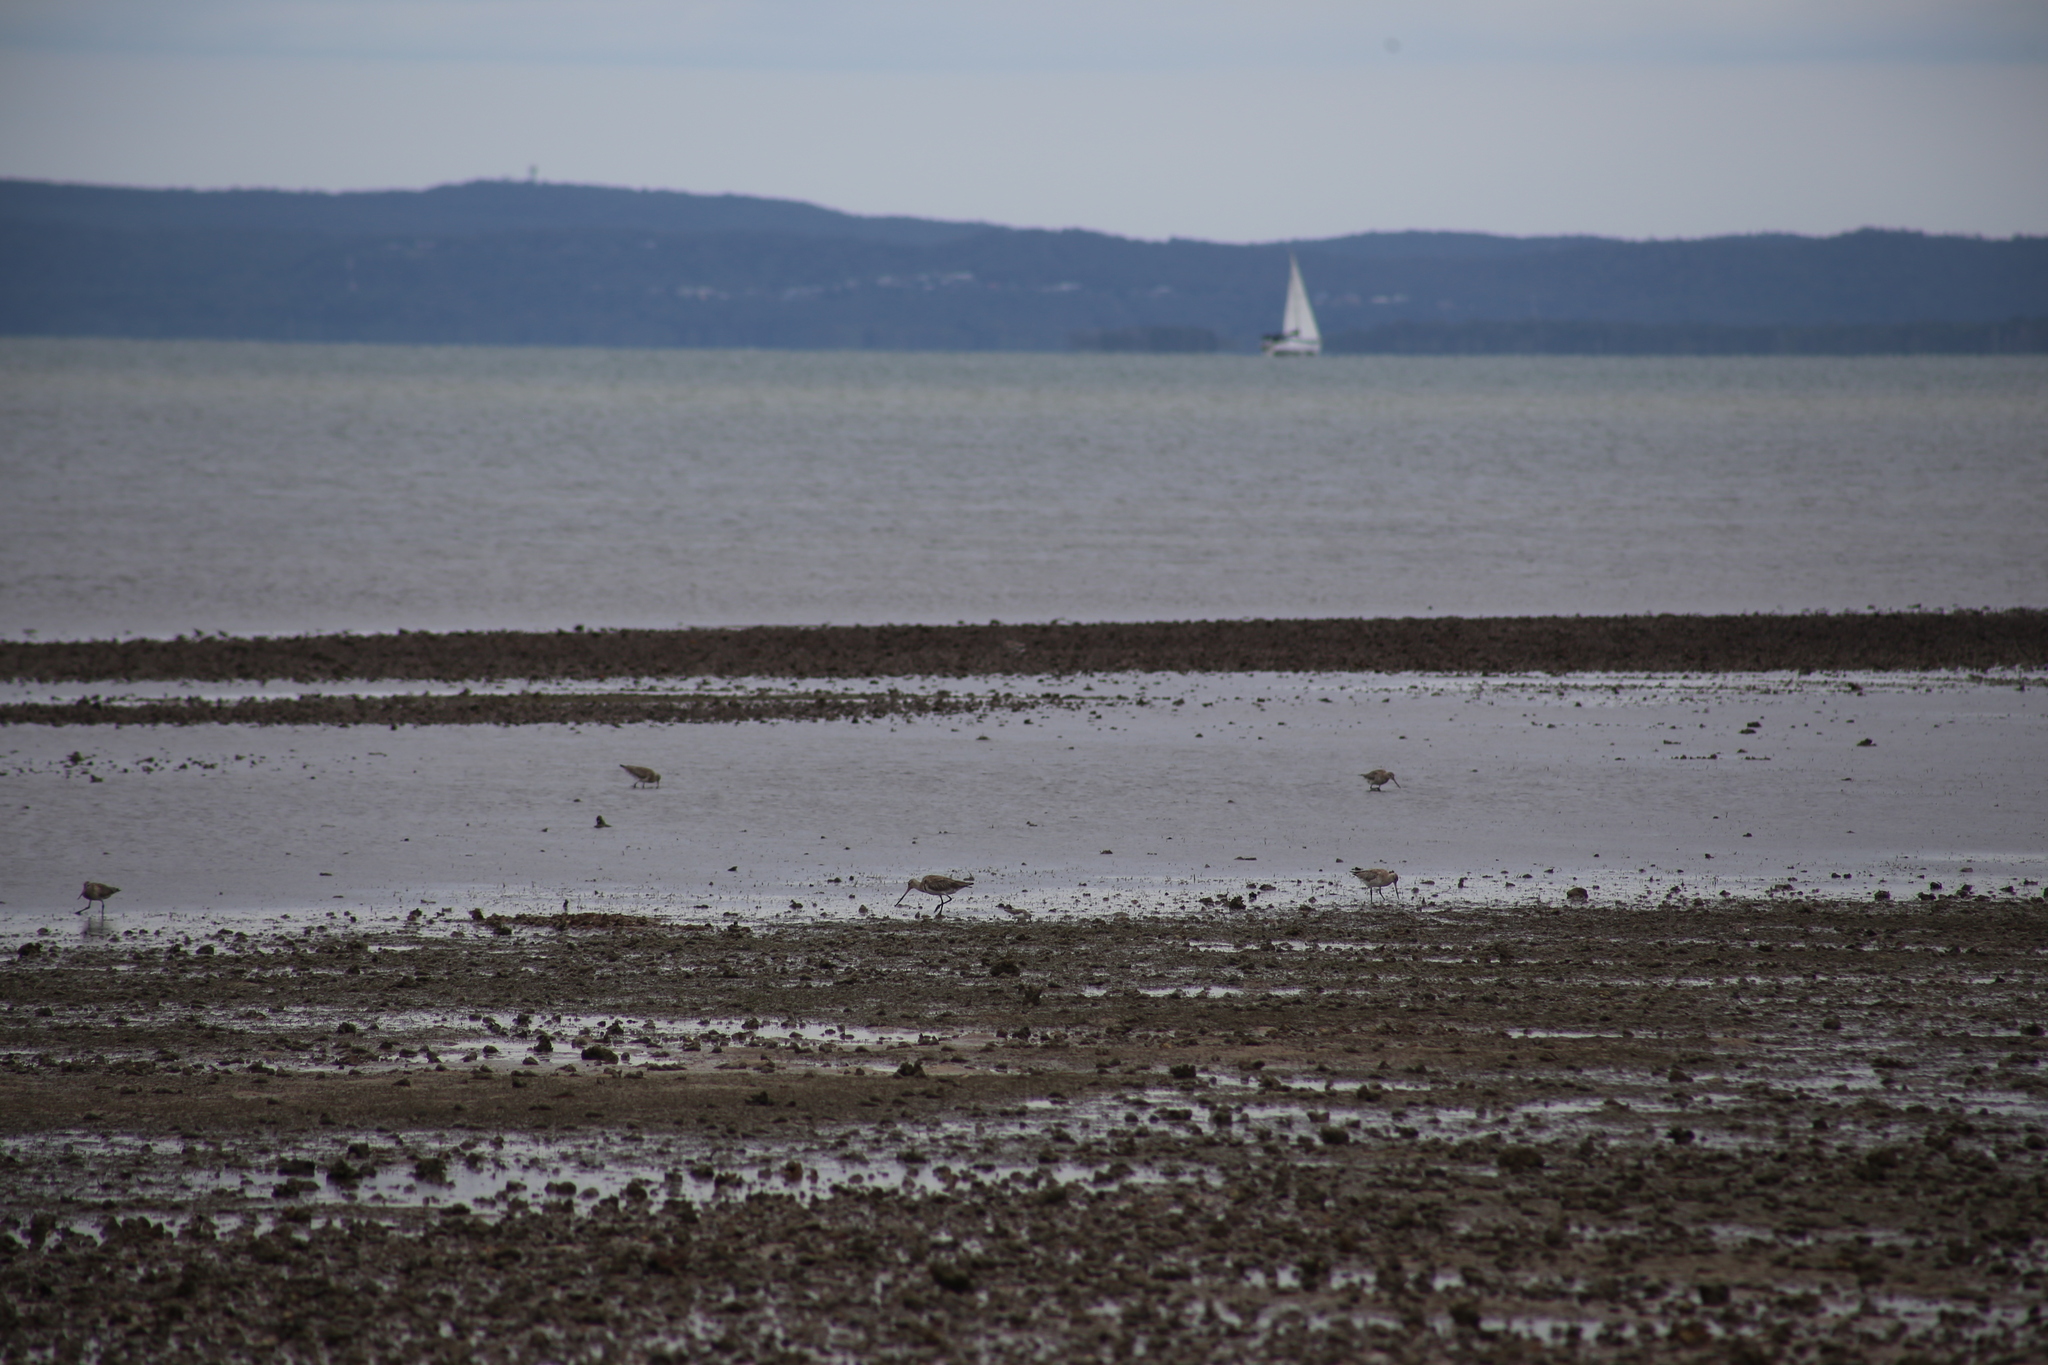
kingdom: Animalia
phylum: Chordata
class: Aves
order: Charadriiformes
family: Scolopacidae
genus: Limosa
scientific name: Limosa lapponica
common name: Bar-tailed godwit
